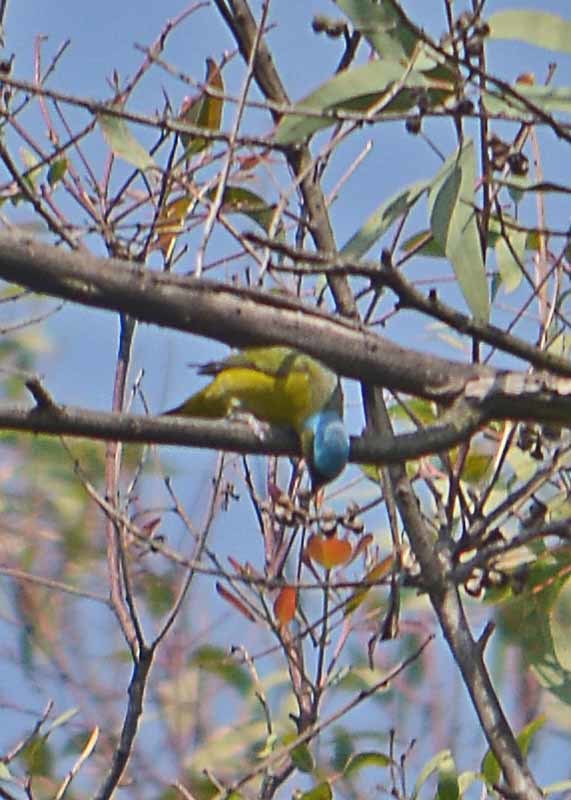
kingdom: Animalia
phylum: Chordata
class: Aves
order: Passeriformes
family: Fringillidae
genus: Euphonia
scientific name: Euphonia elegantissima
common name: Elegant euphonia
